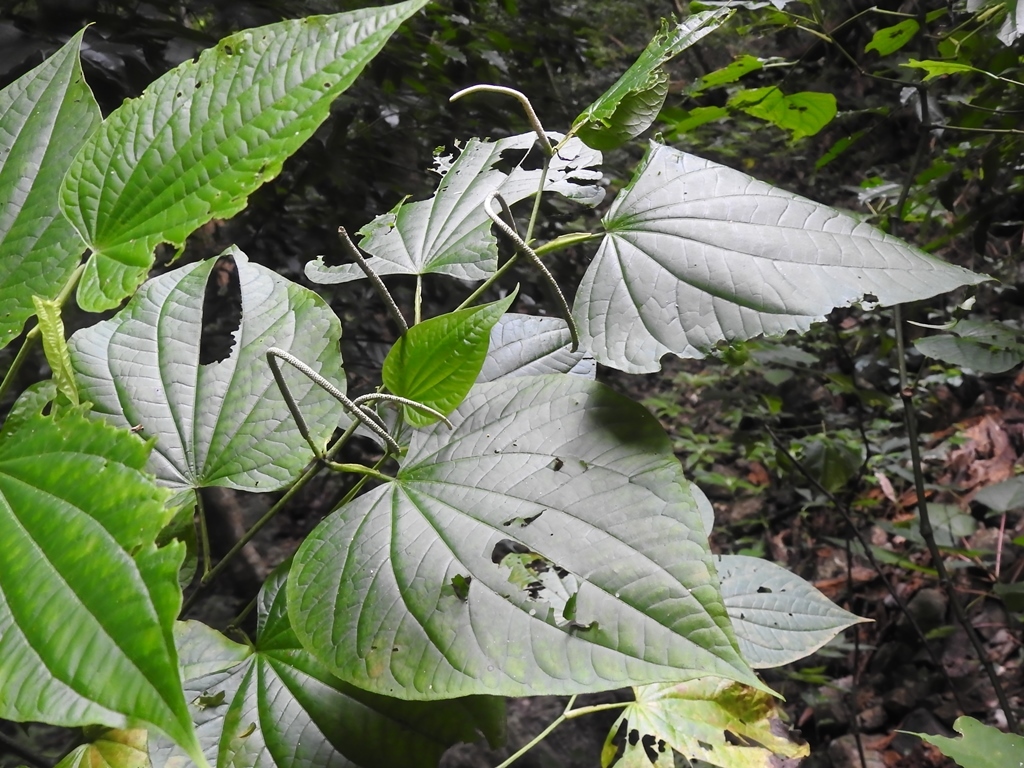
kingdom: Plantae
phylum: Tracheophyta
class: Magnoliopsida
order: Piperales
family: Piperaceae
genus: Piper
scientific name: Piper marginatum
